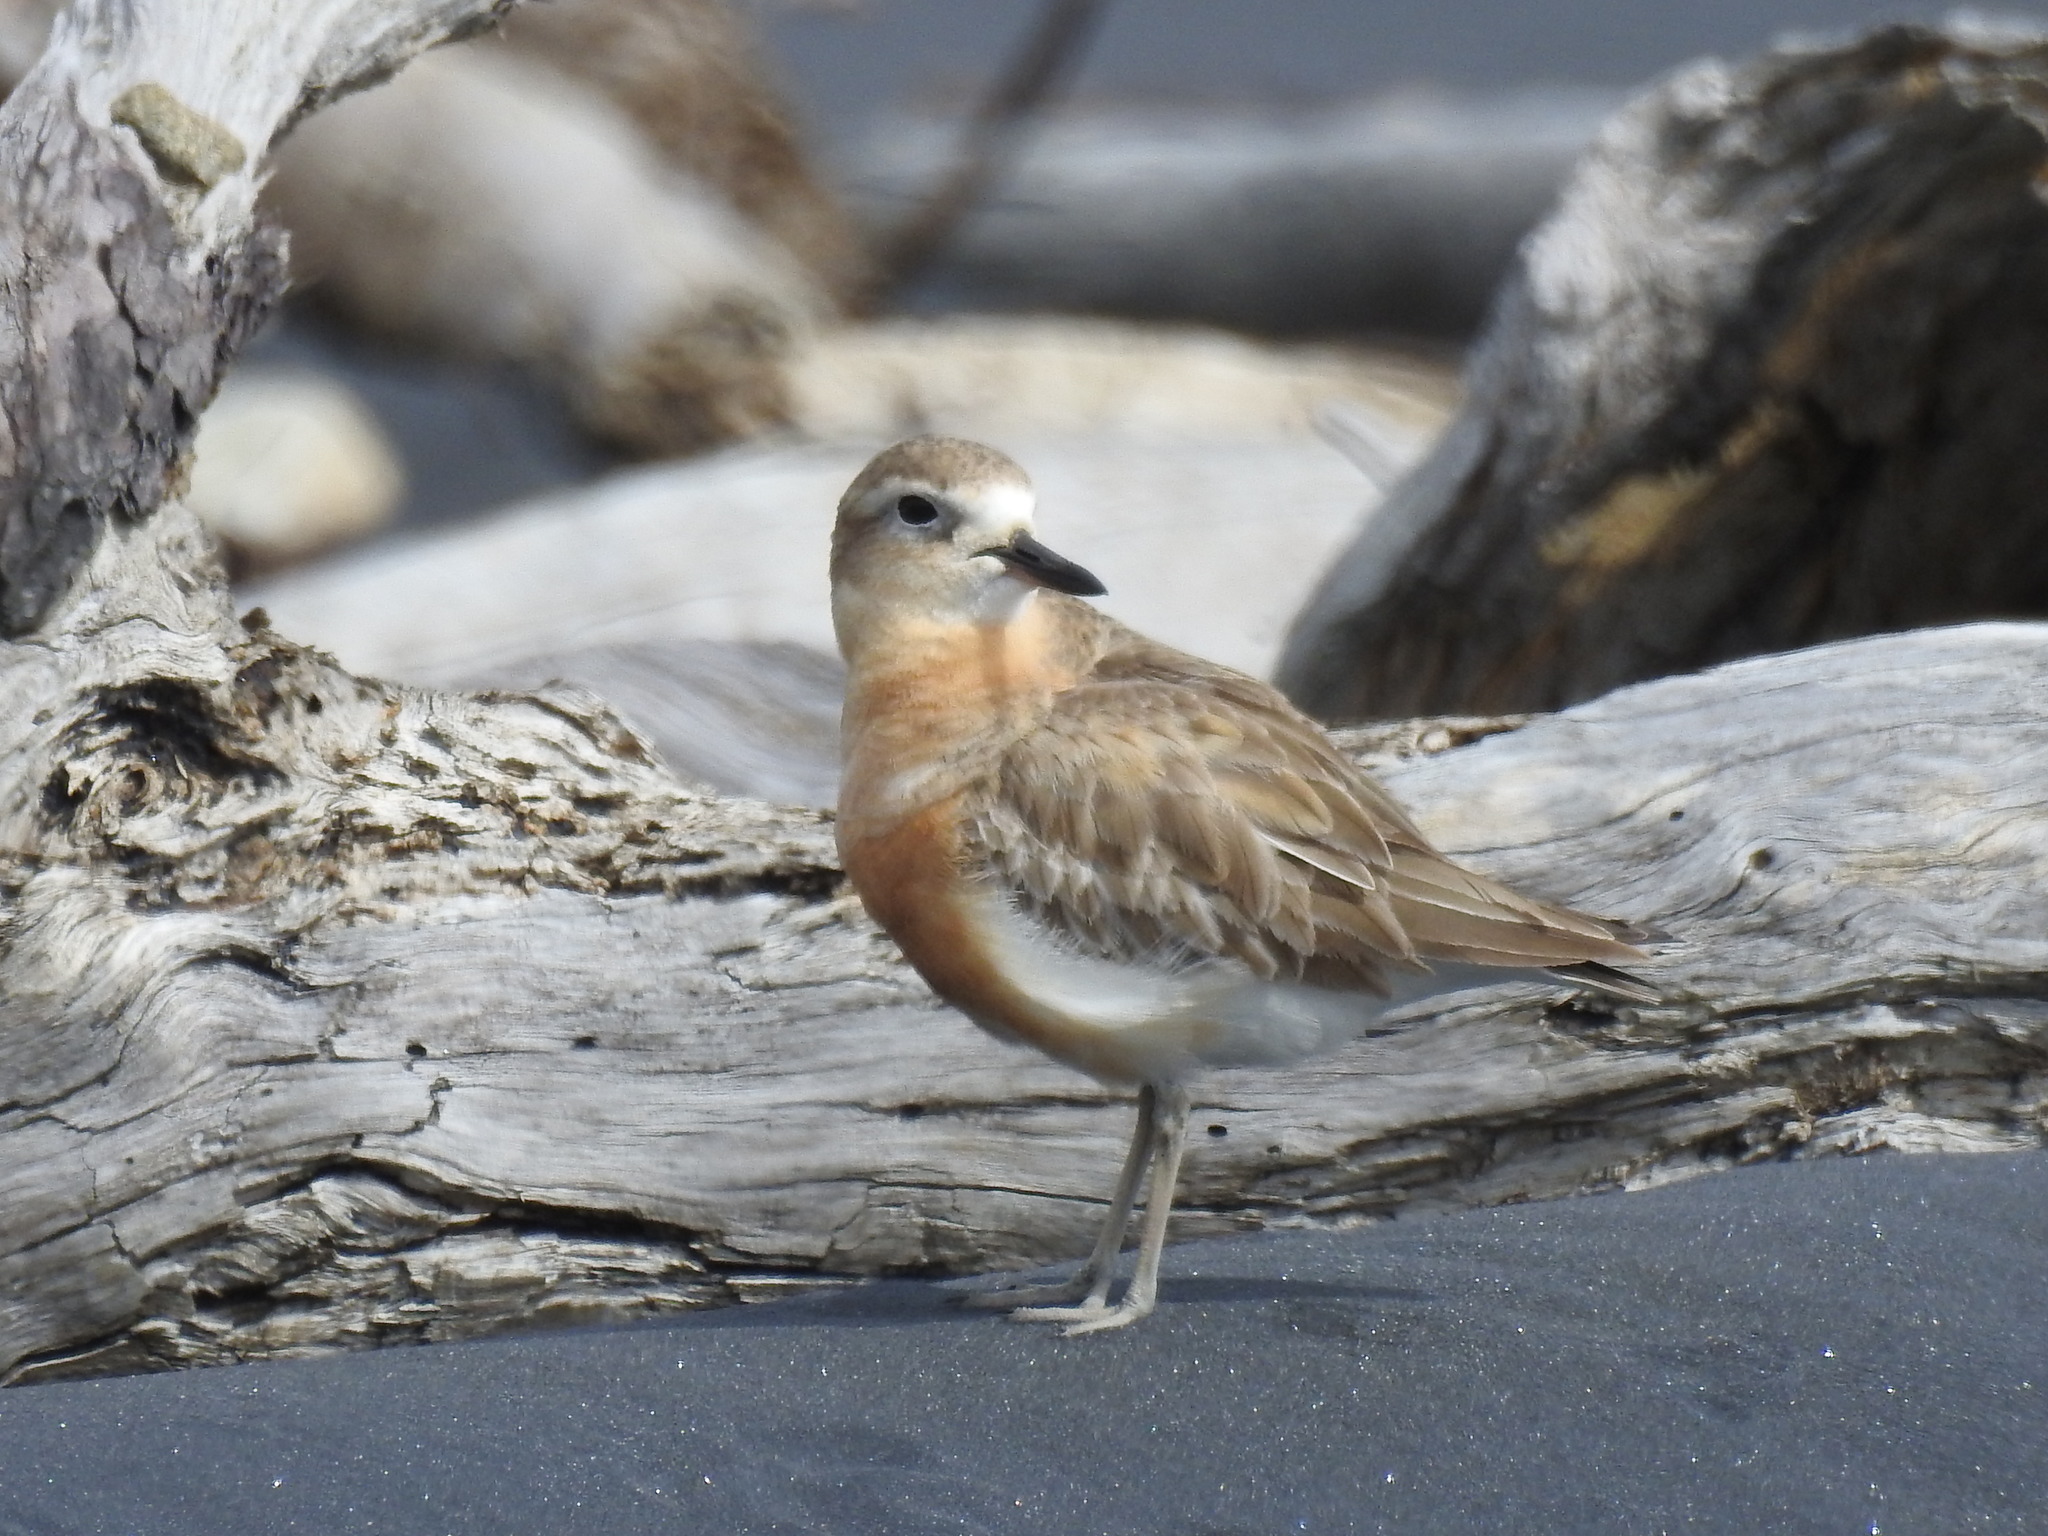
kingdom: Animalia
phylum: Chordata
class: Aves
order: Charadriiformes
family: Charadriidae
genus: Anarhynchus
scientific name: Anarhynchus
